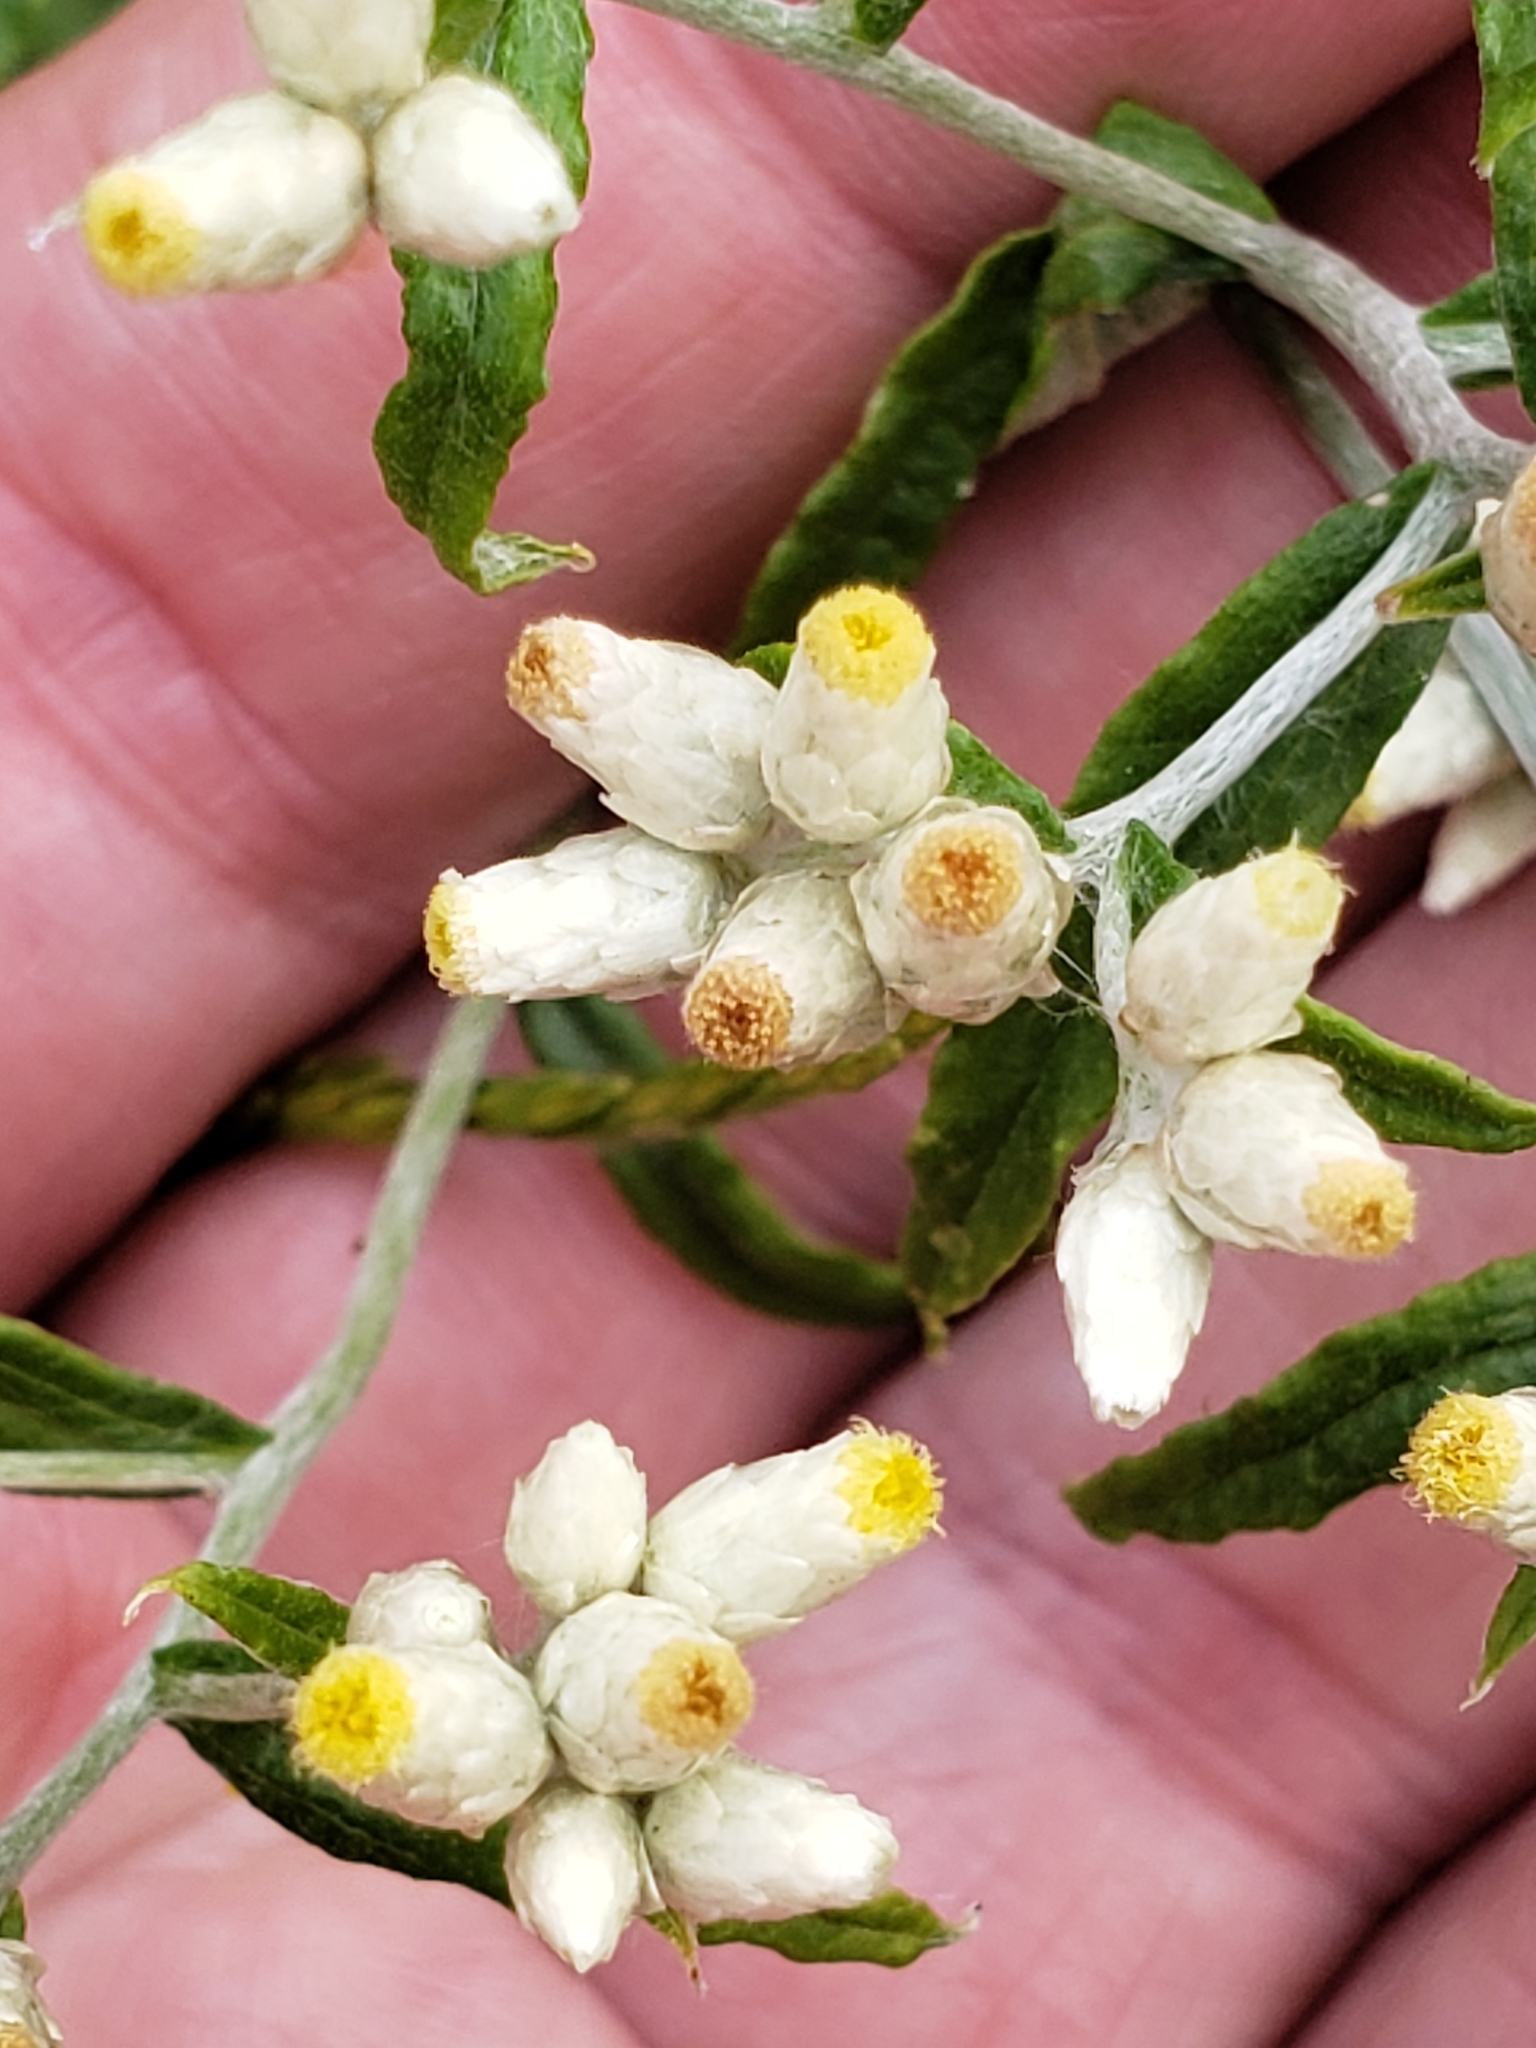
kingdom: Plantae
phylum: Tracheophyta
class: Magnoliopsida
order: Asterales
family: Asteraceae
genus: Pseudognaphalium
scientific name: Pseudognaphalium obtusifolium
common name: Eastern rabbit-tobacco
